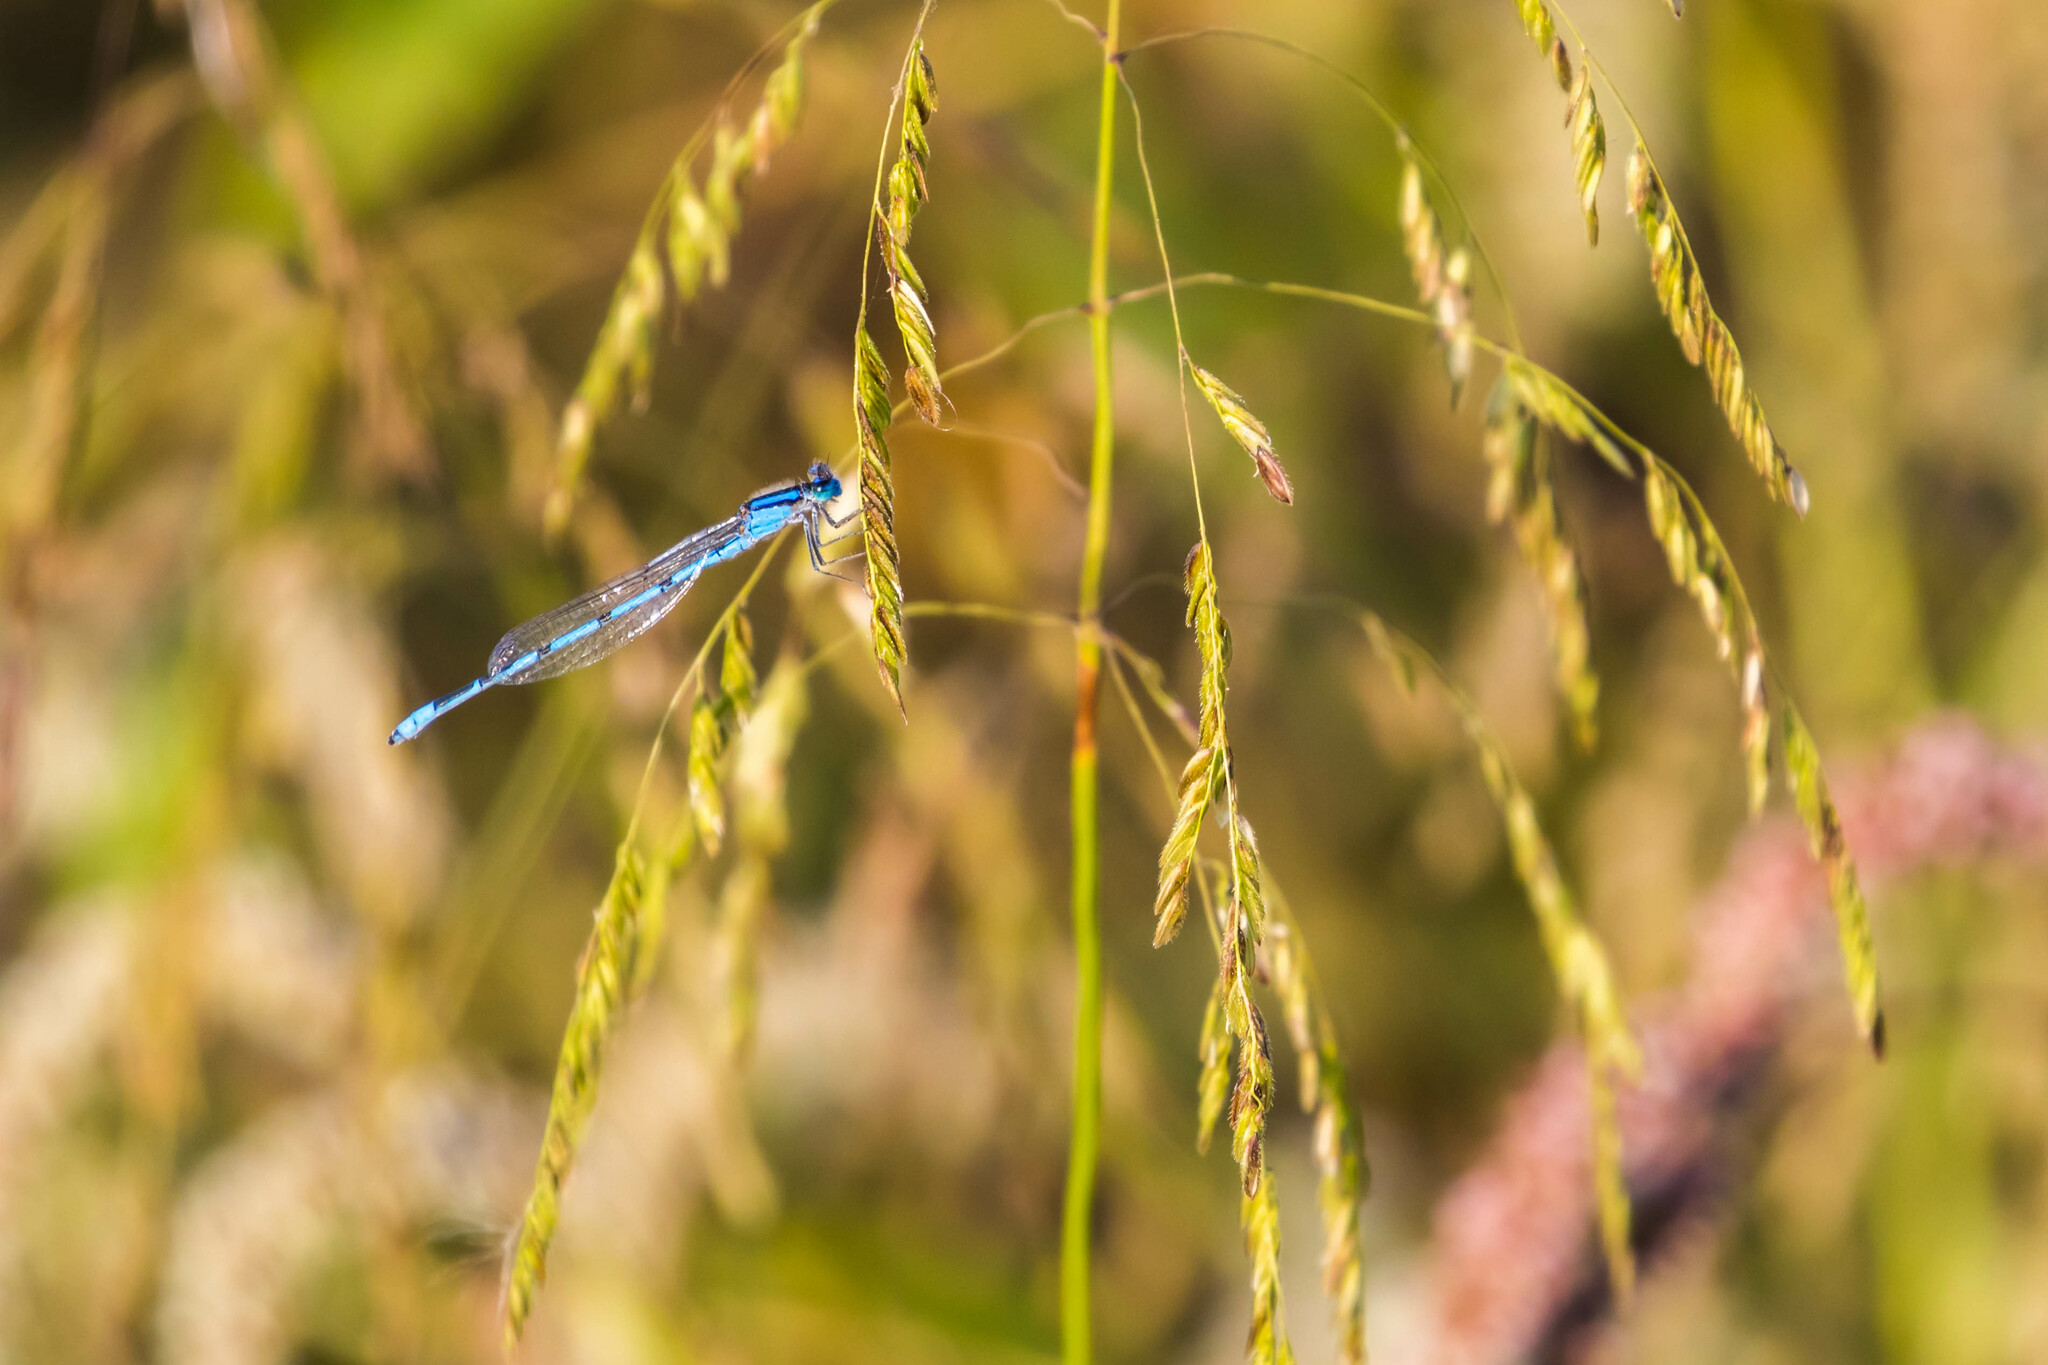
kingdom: Animalia
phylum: Arthropoda
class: Insecta
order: Odonata
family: Coenagrionidae
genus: Enallagma
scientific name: Enallagma civile
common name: Damselfly
